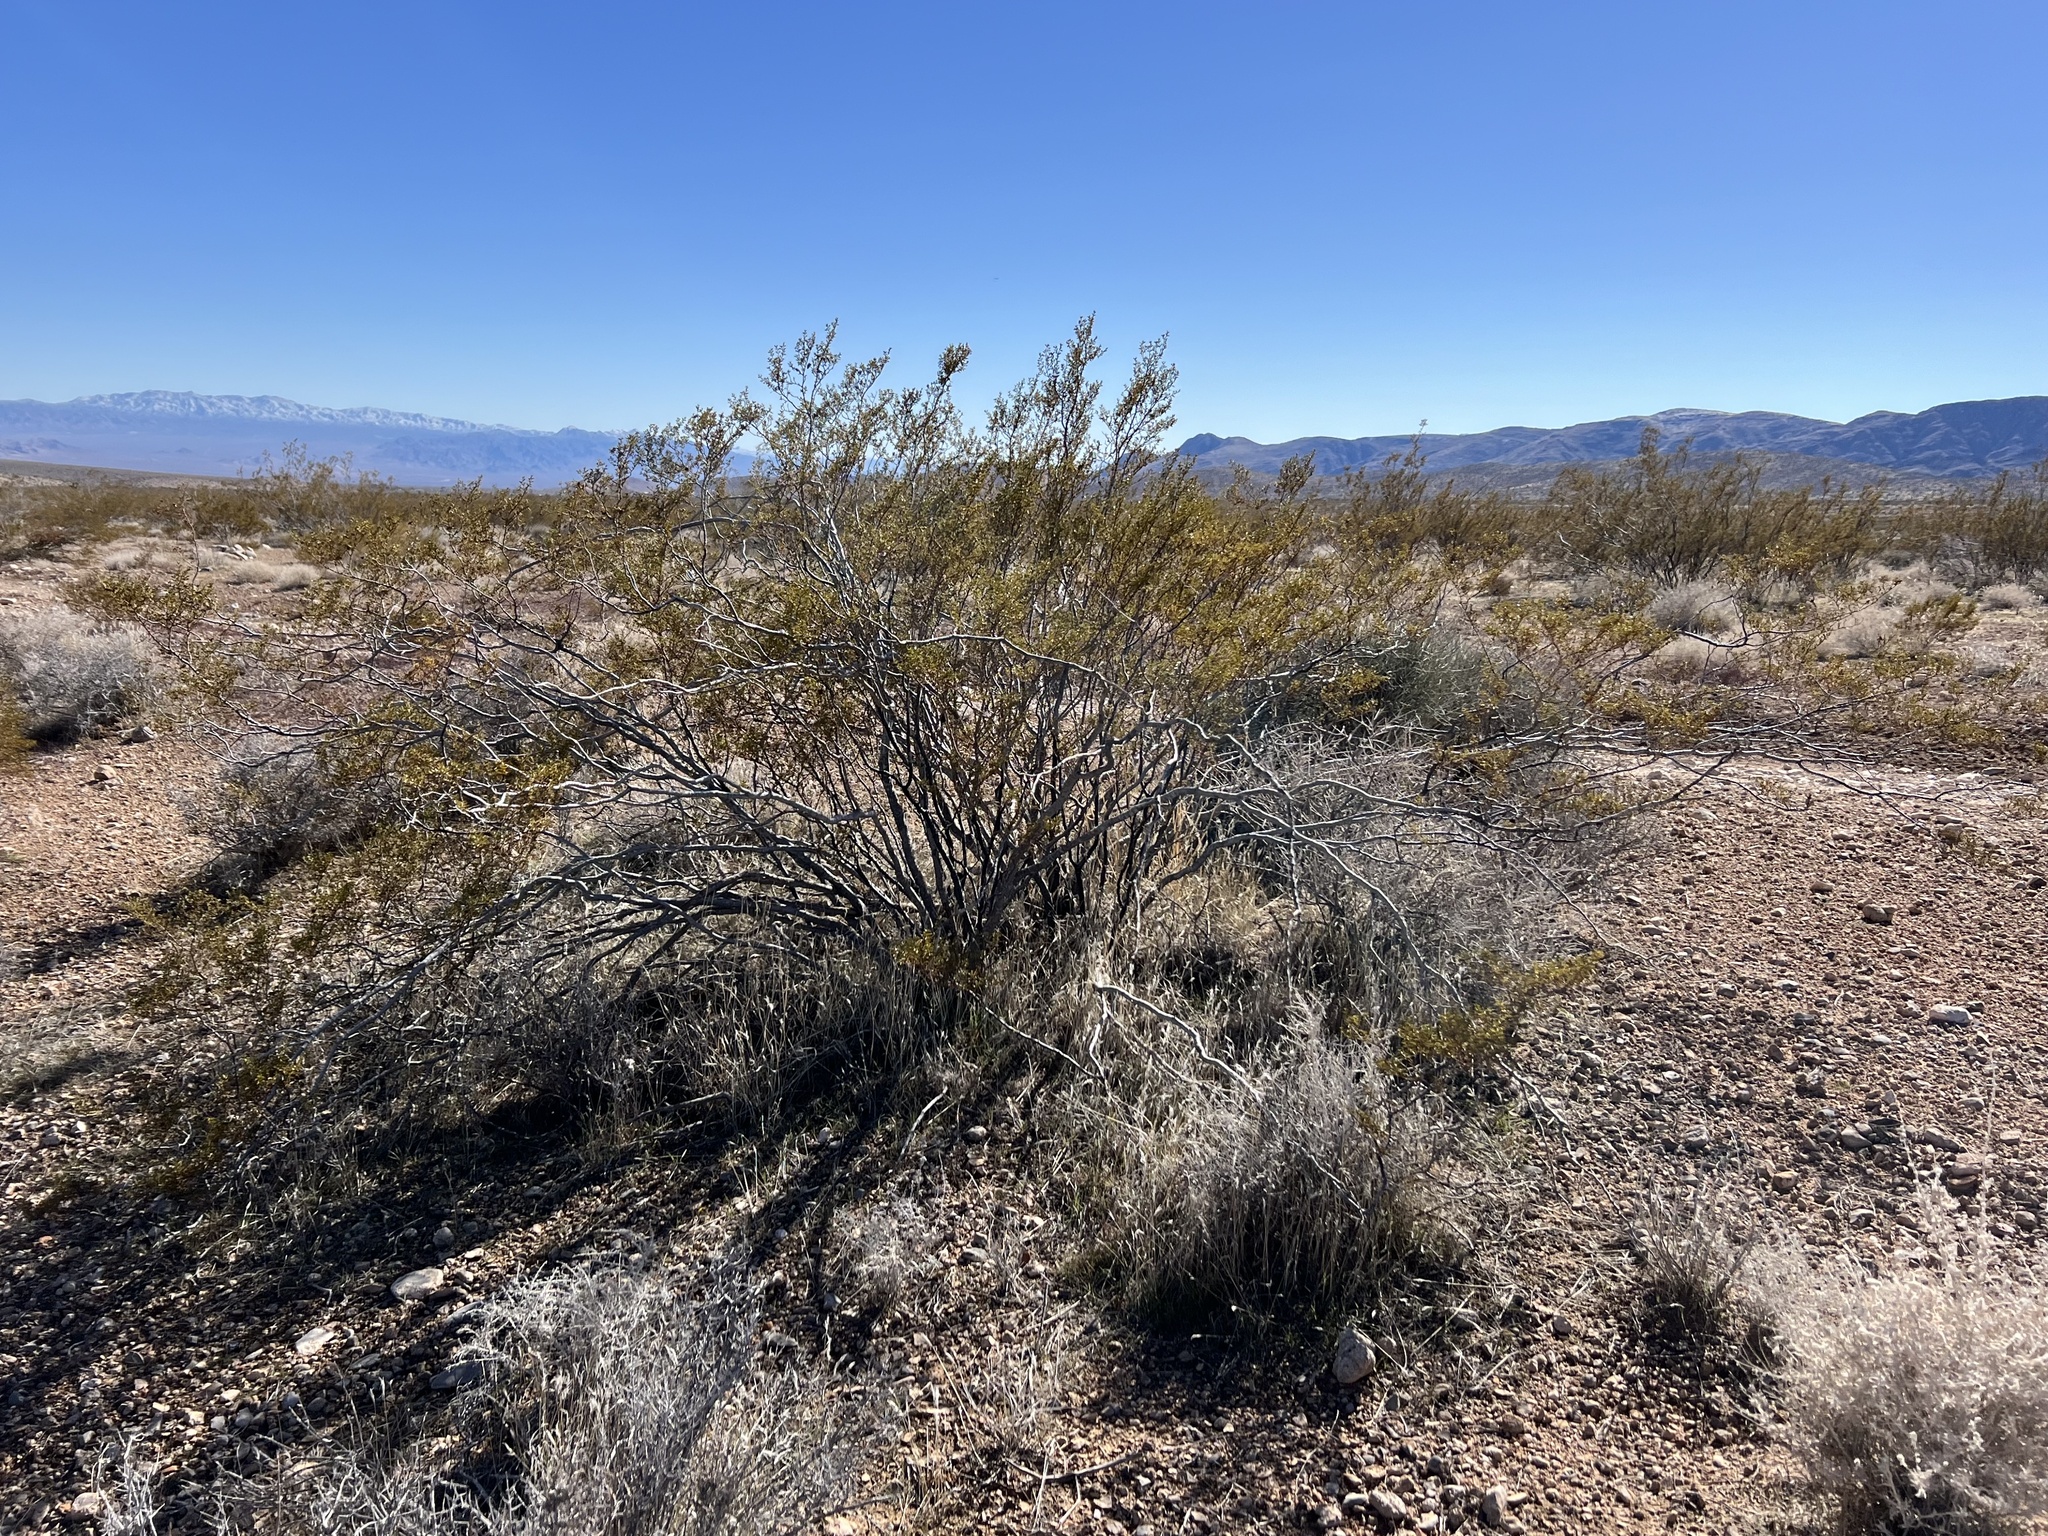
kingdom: Plantae
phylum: Tracheophyta
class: Magnoliopsida
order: Zygophyllales
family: Zygophyllaceae
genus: Larrea
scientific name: Larrea tridentata
